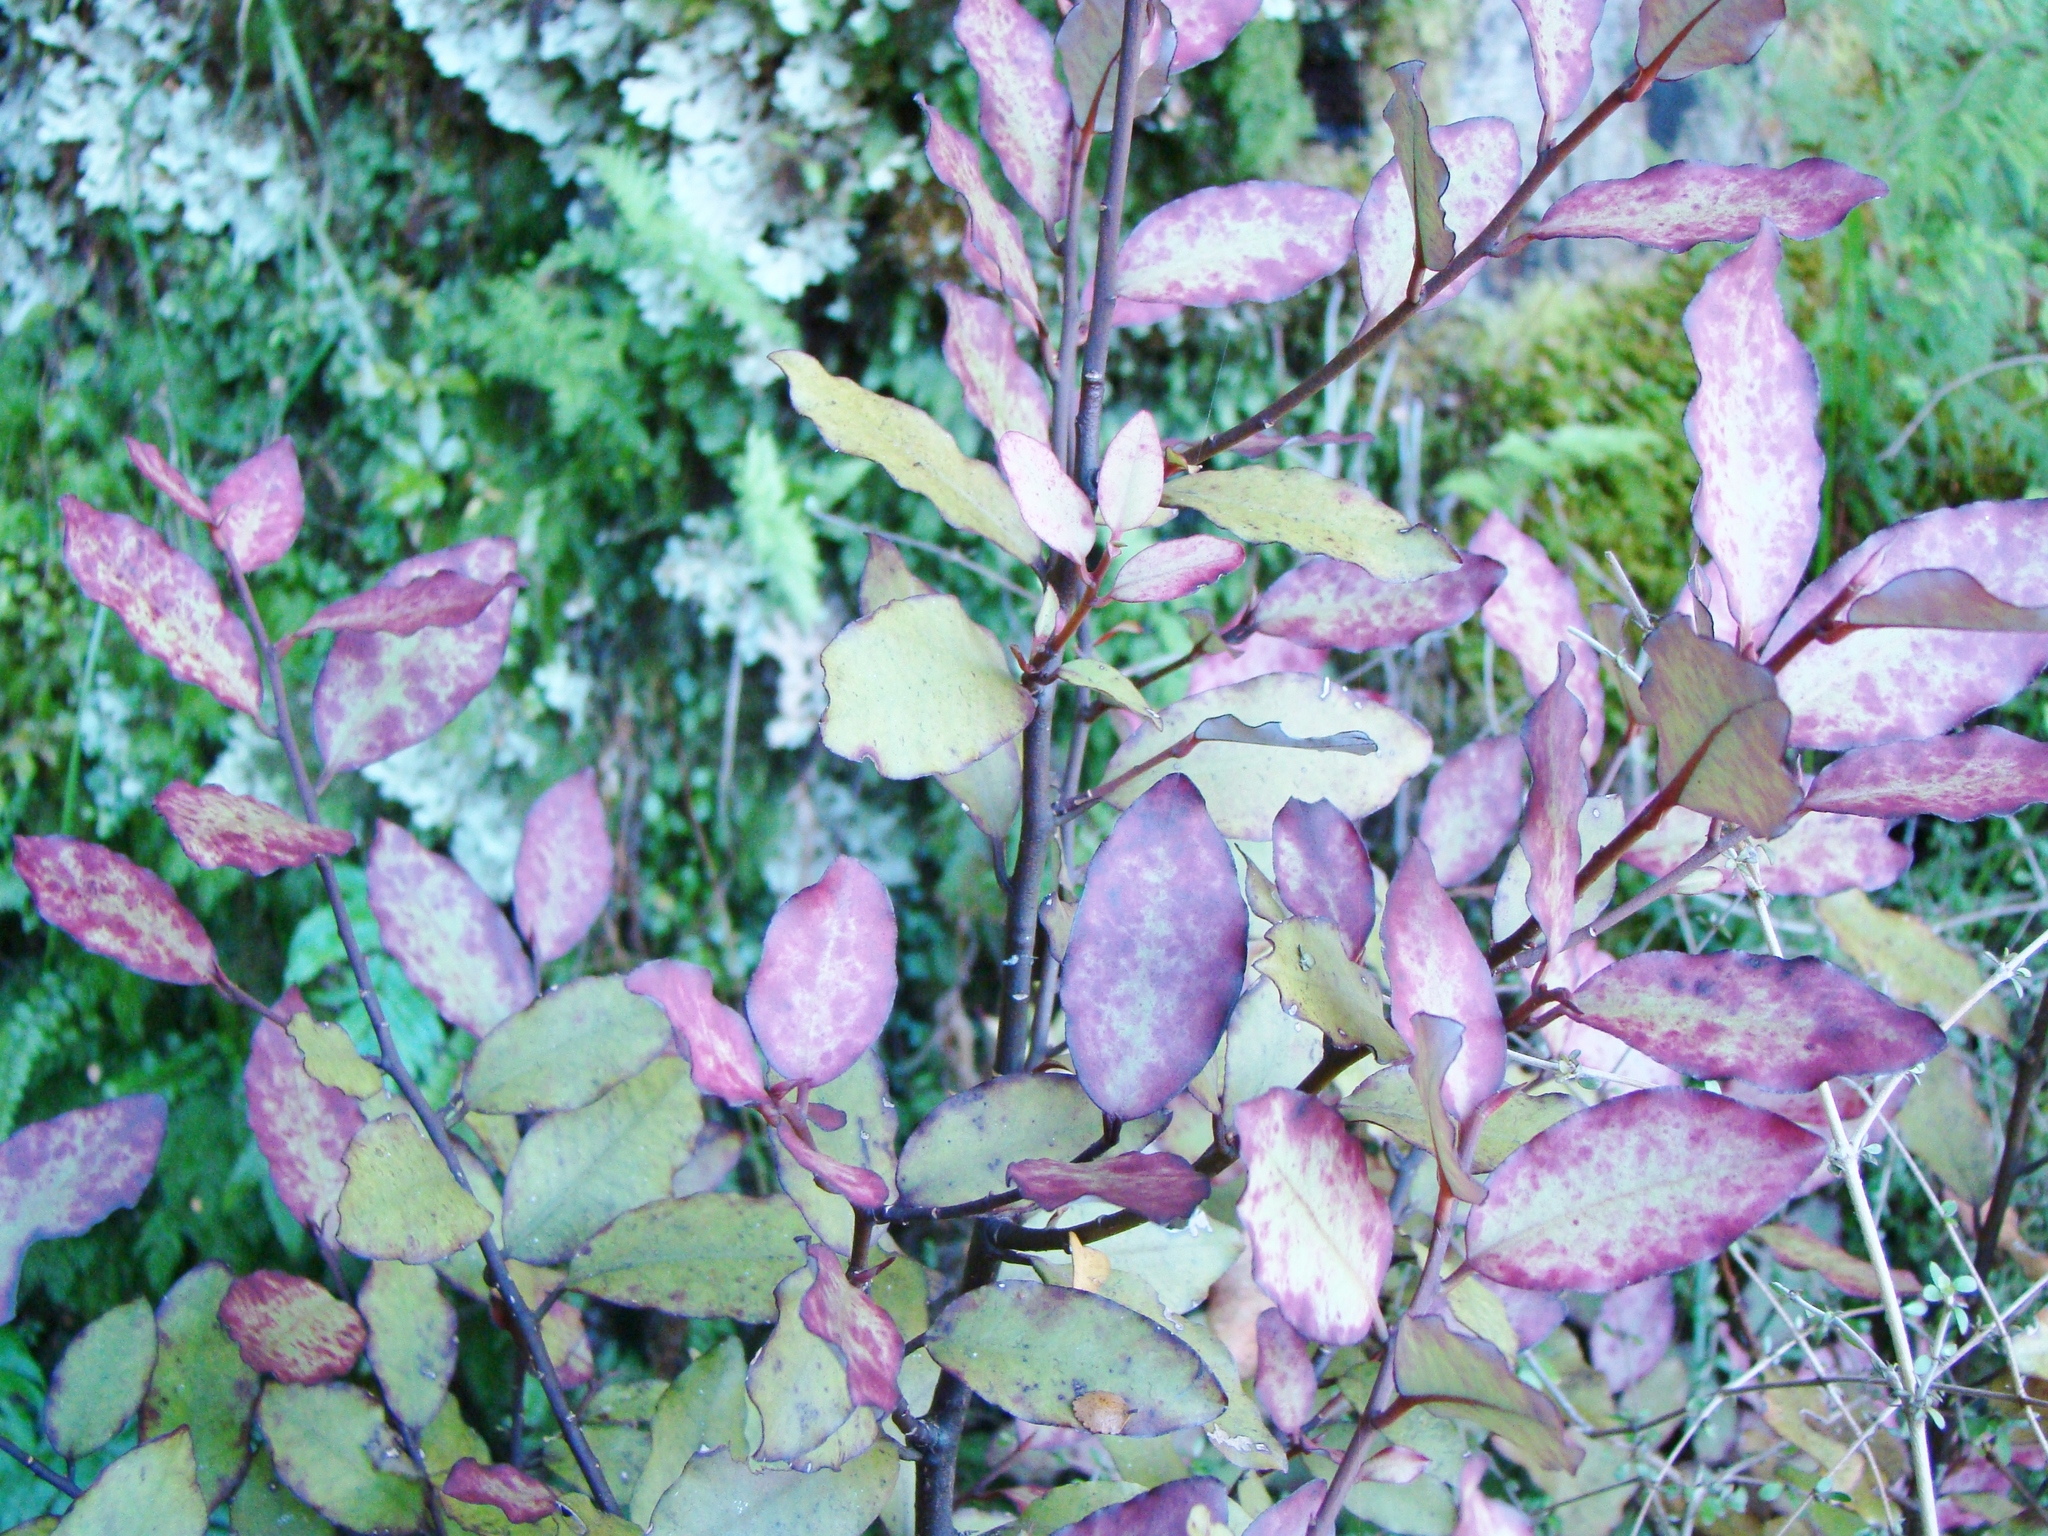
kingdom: Plantae
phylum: Tracheophyta
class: Magnoliopsida
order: Canellales
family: Winteraceae
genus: Pseudowintera
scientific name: Pseudowintera colorata
